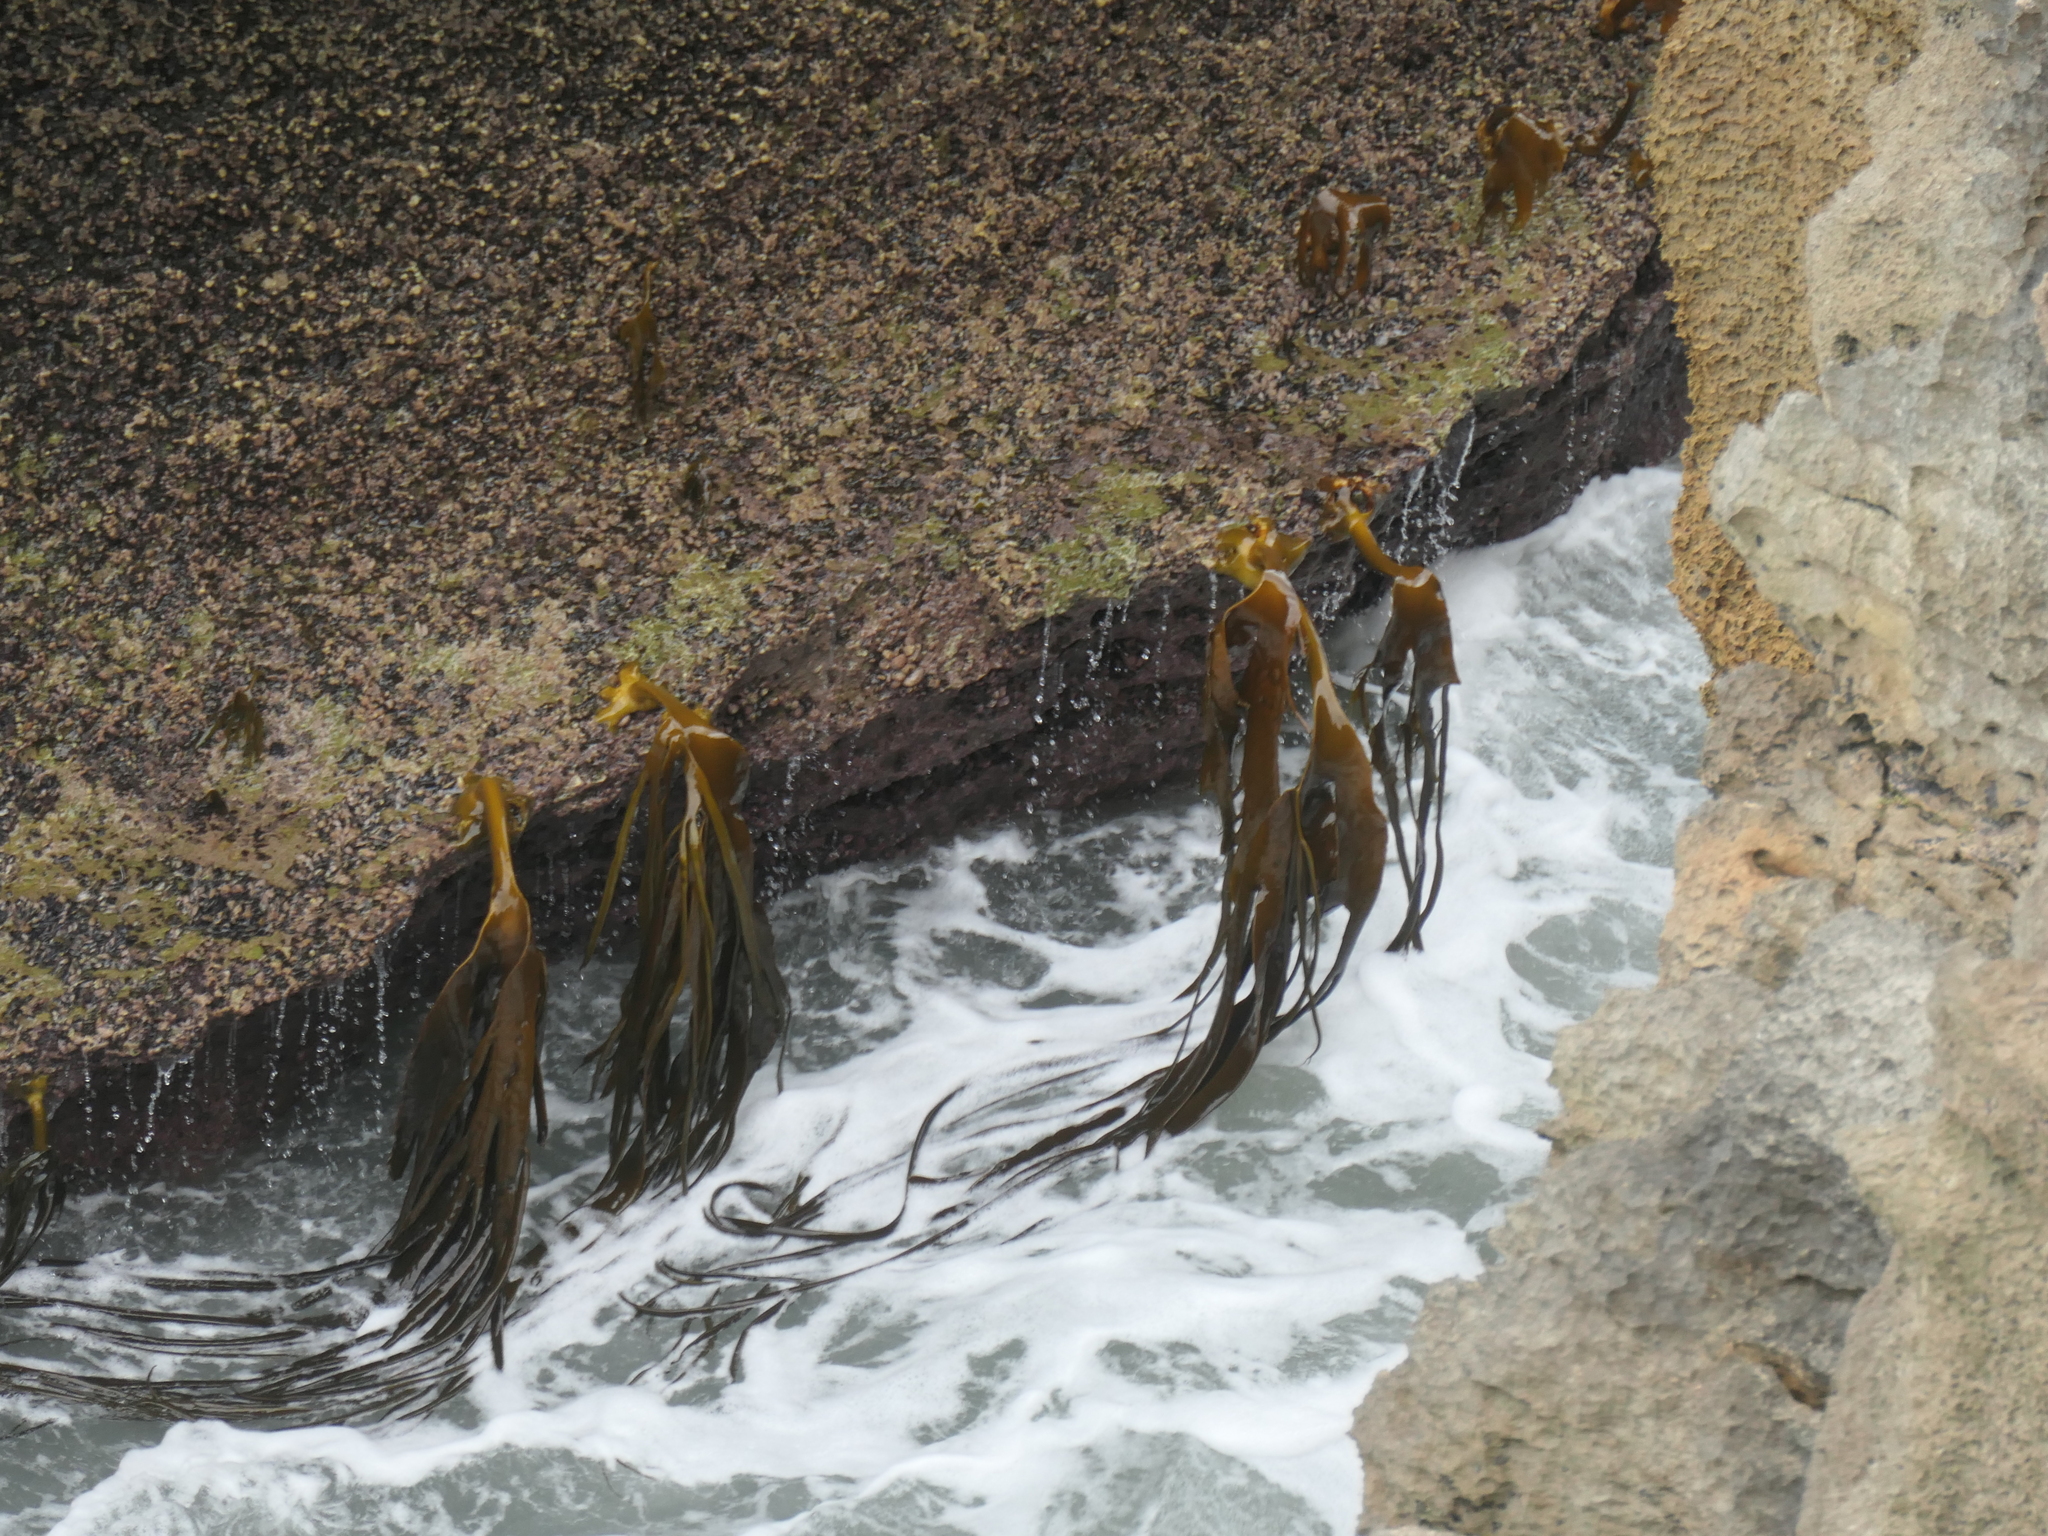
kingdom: Chromista
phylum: Ochrophyta
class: Phaeophyceae
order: Fucales
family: Durvillaeaceae
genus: Durvillaea
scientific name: Durvillaea antarctica
